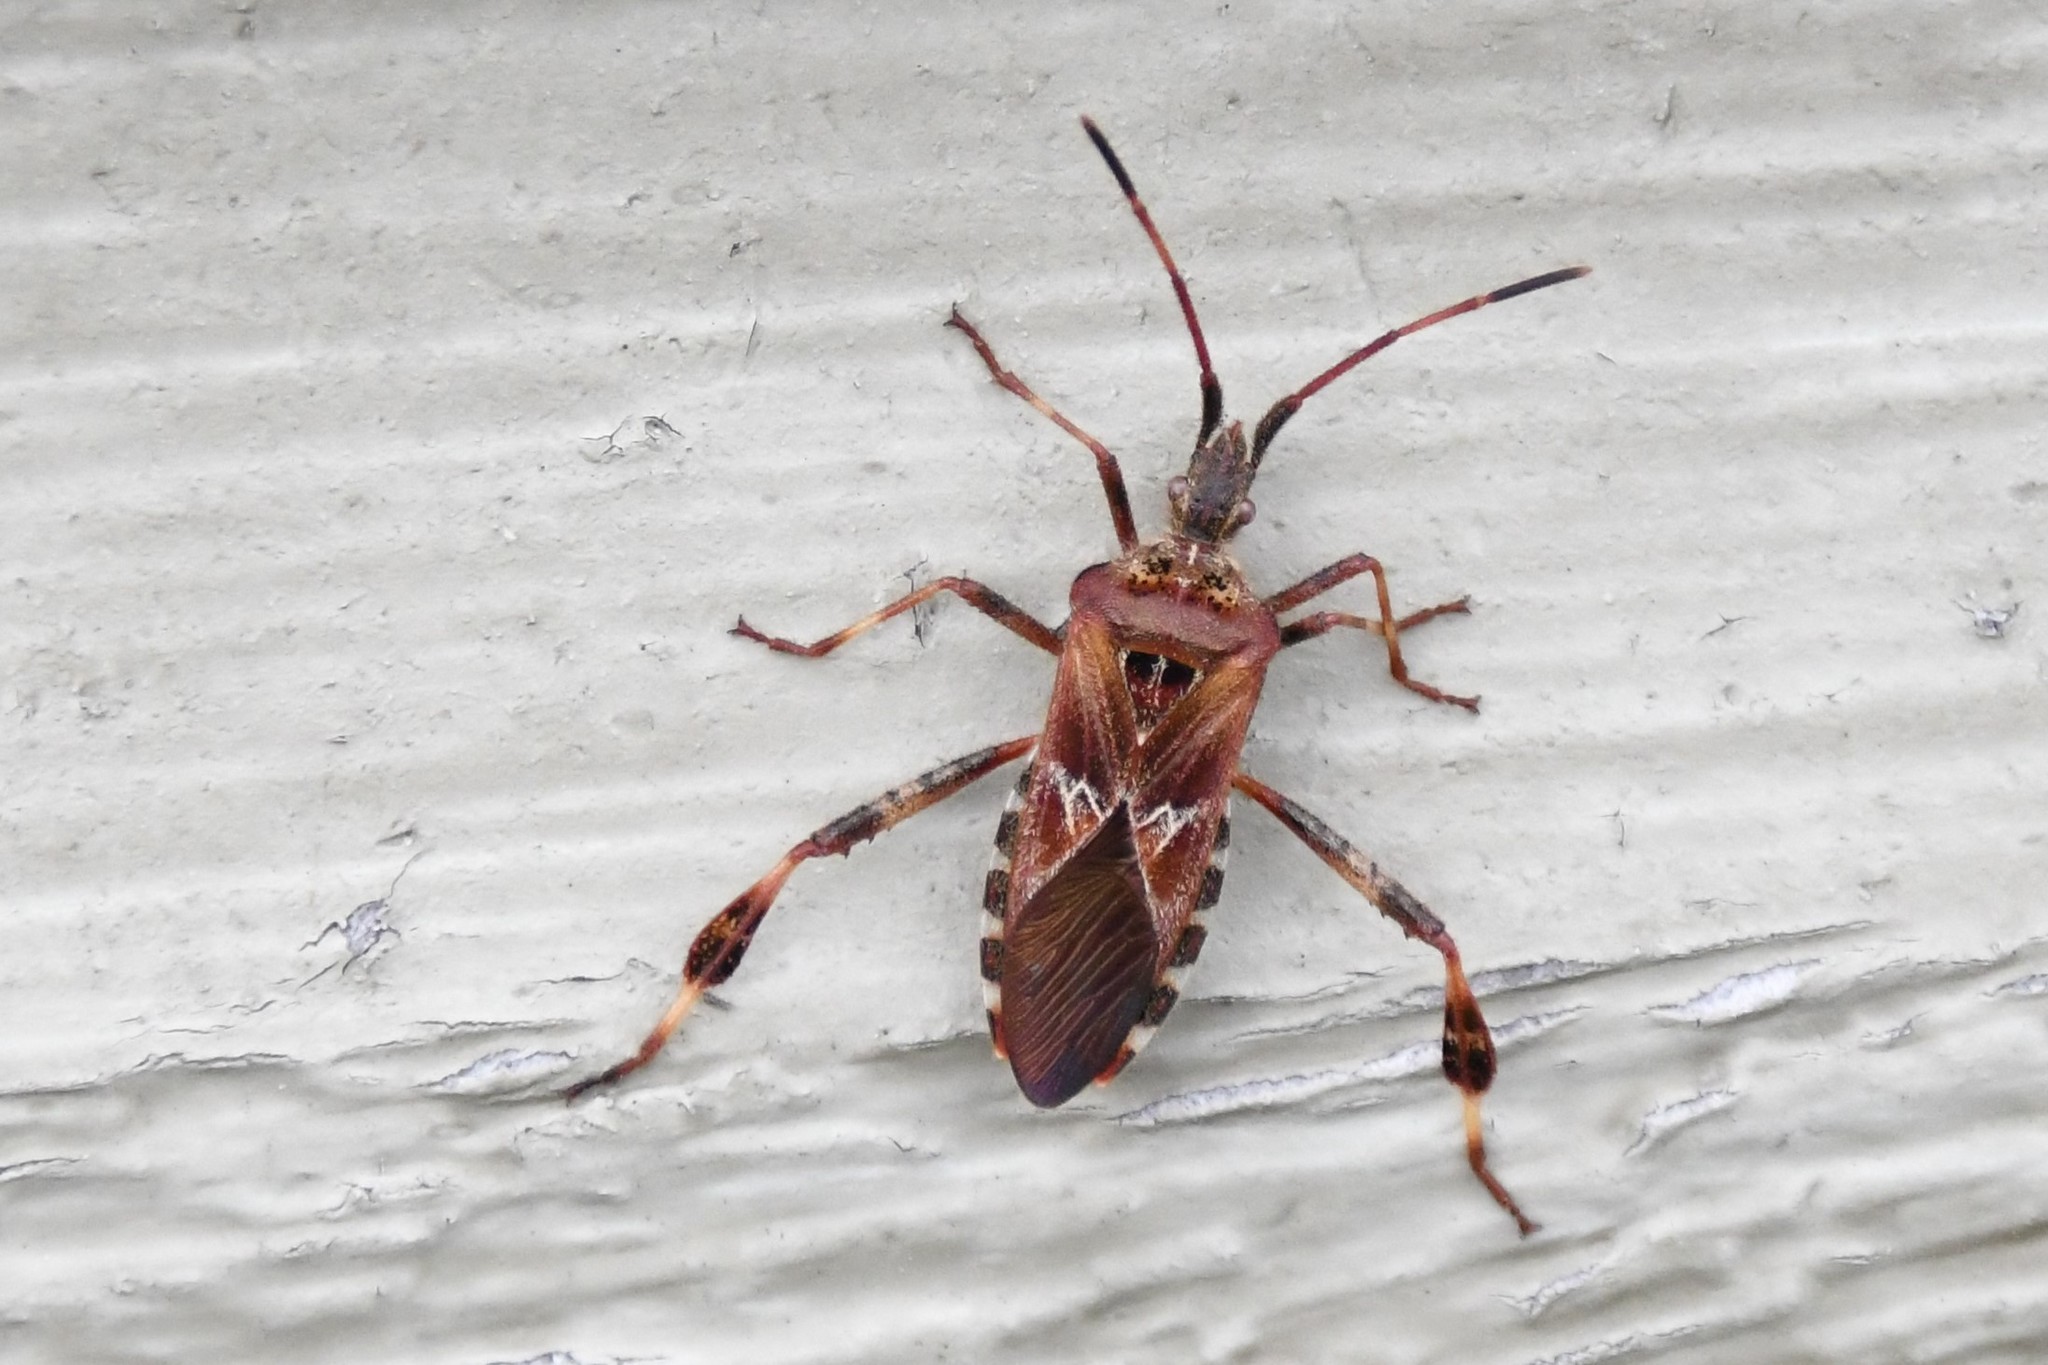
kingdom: Animalia
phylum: Arthropoda
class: Insecta
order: Hemiptera
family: Coreidae
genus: Leptoglossus
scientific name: Leptoglossus occidentalis
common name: Western conifer-seed bug
